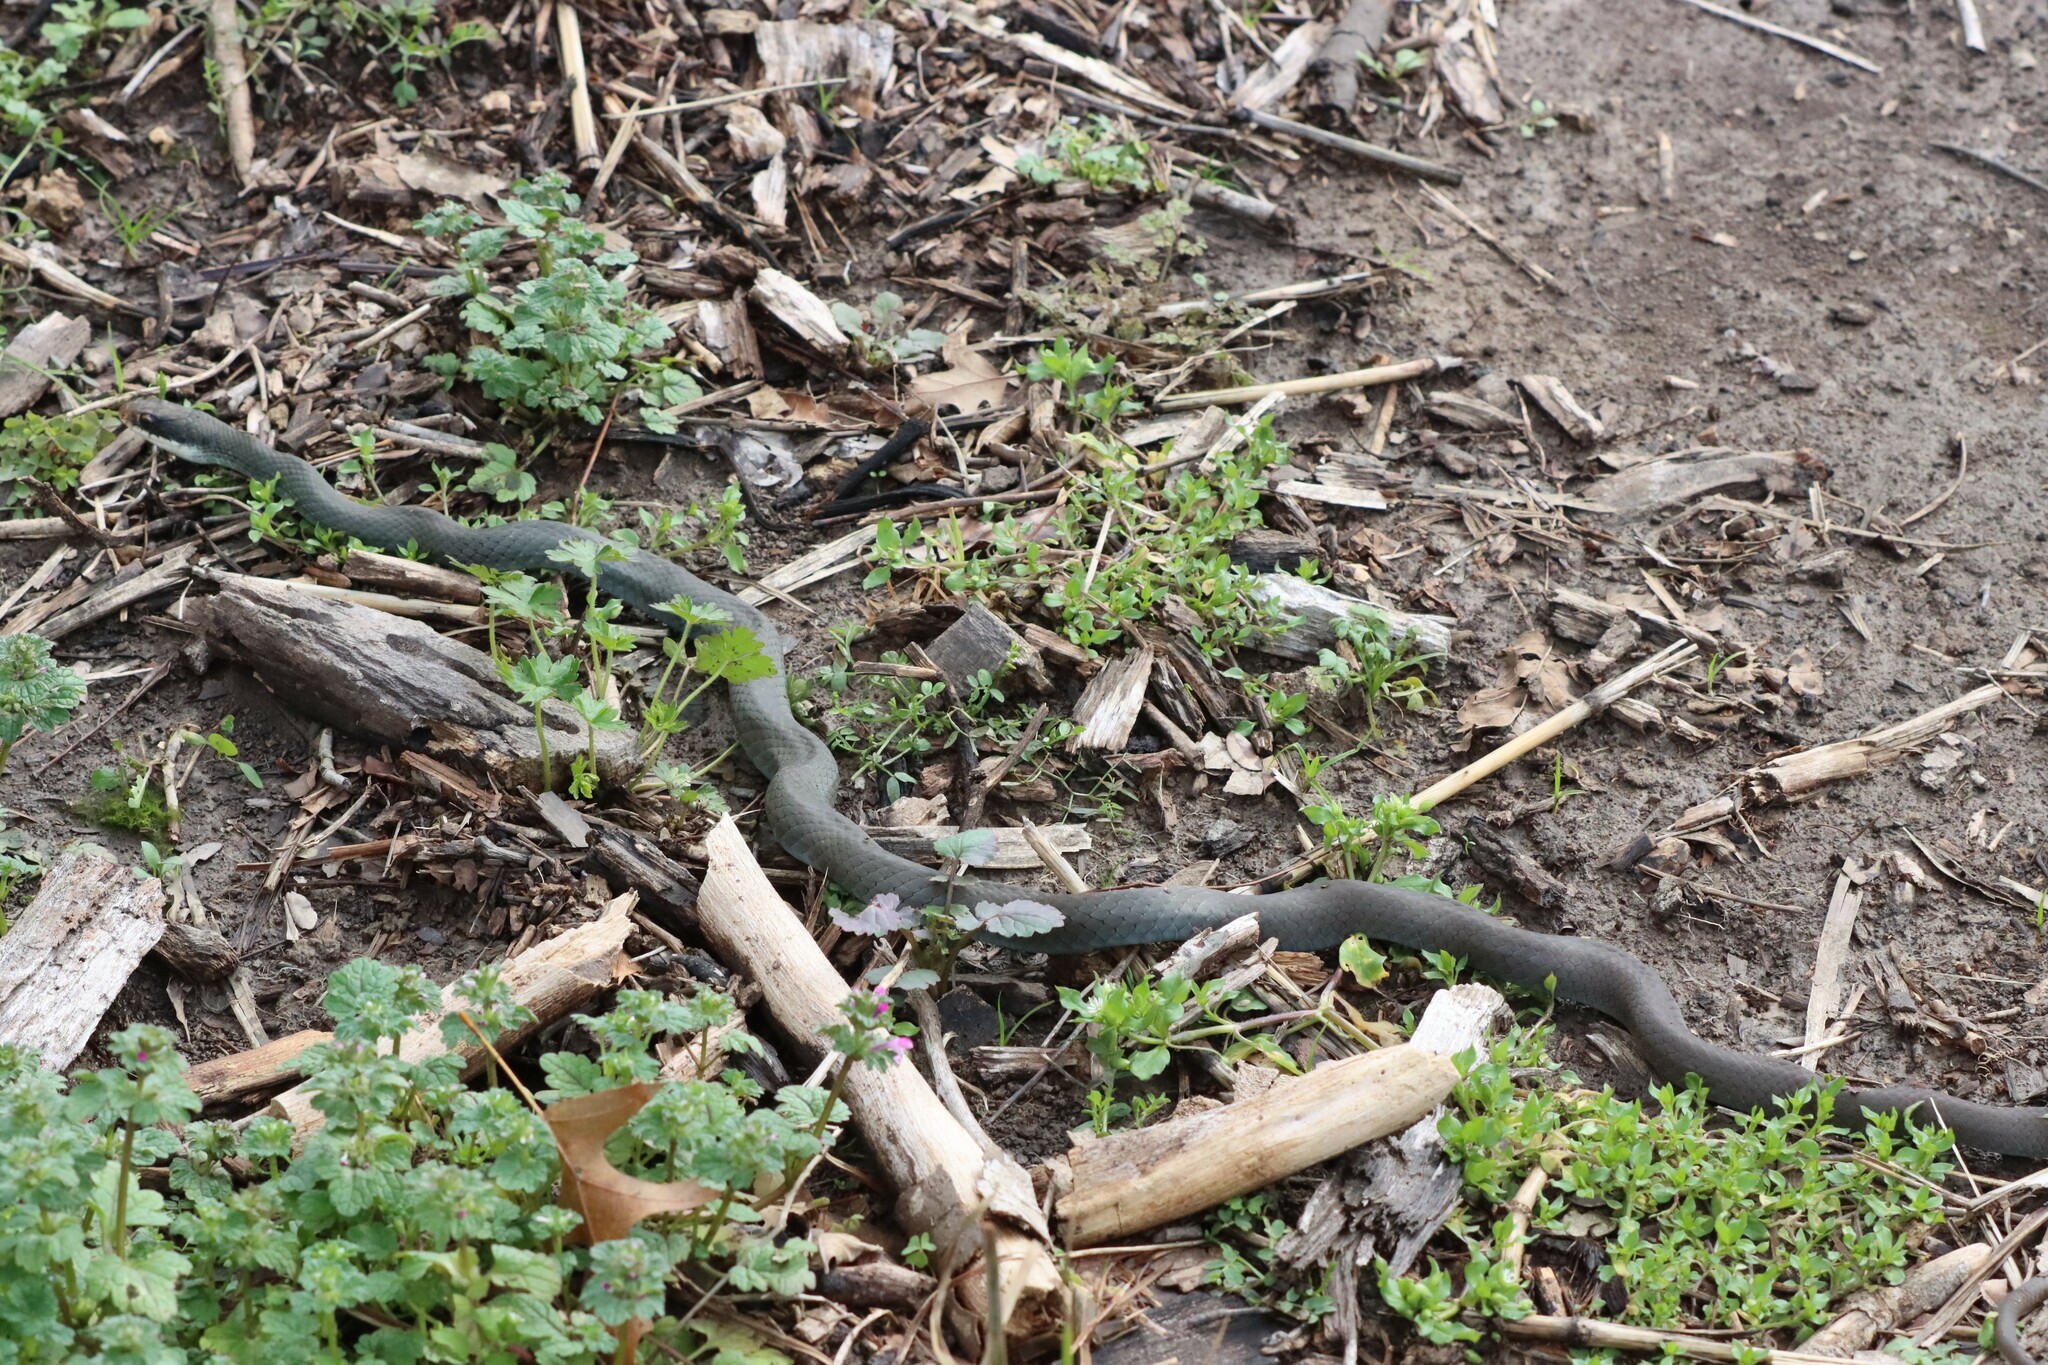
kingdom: Animalia
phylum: Chordata
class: Squamata
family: Colubridae
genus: Coluber
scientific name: Coluber constrictor
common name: Eastern racer
